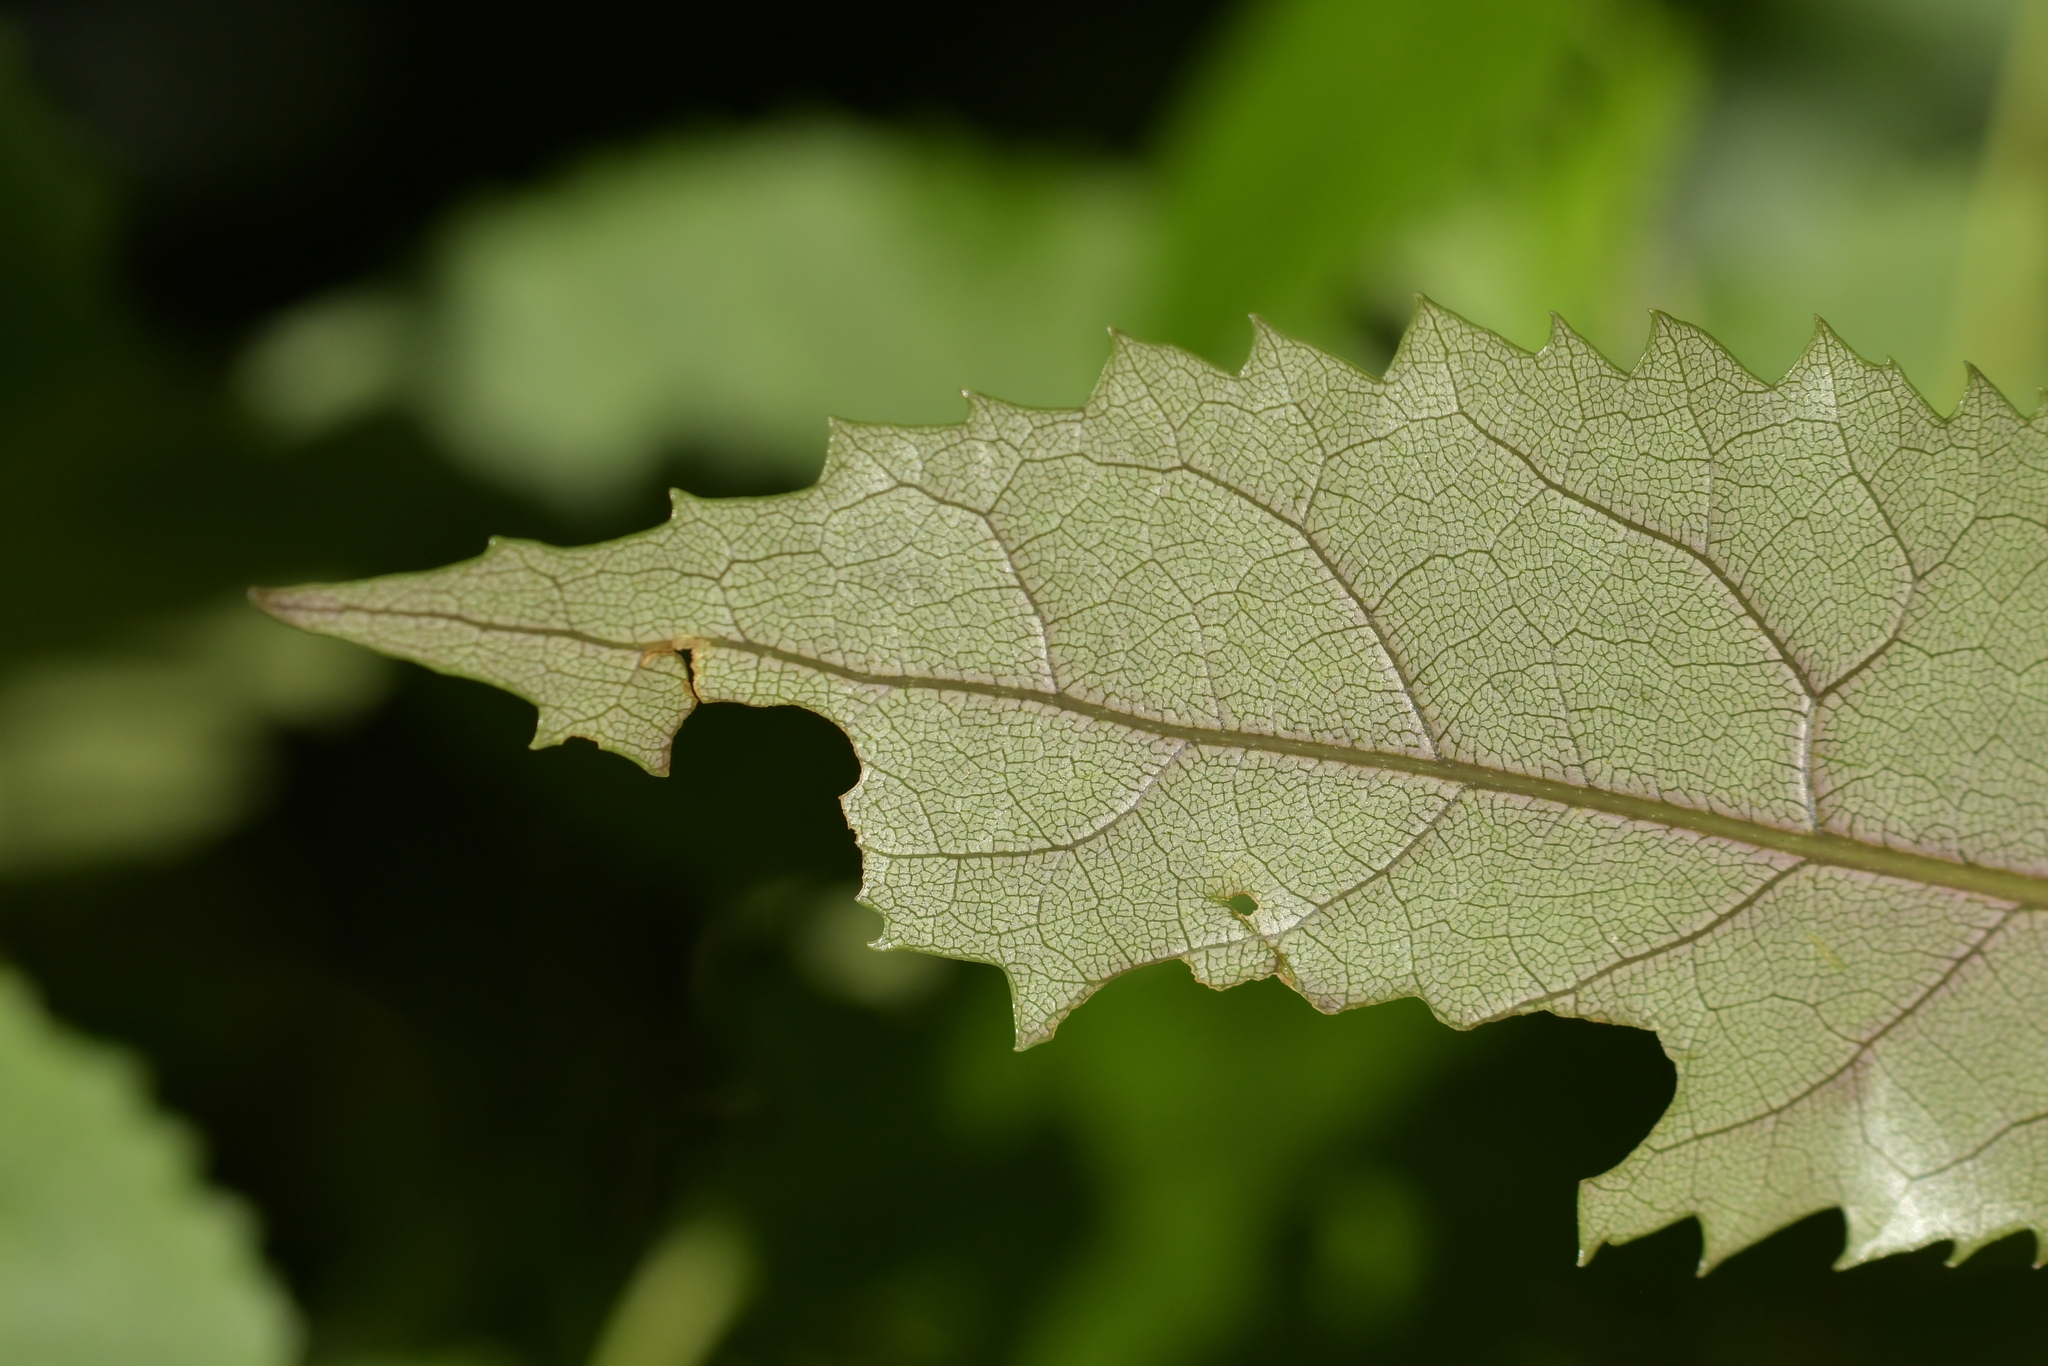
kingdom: Plantae
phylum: Tracheophyta
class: Magnoliopsida
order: Malvales
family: Malvaceae
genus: Hoheria
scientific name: Hoheria populnea
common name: Lacebark
